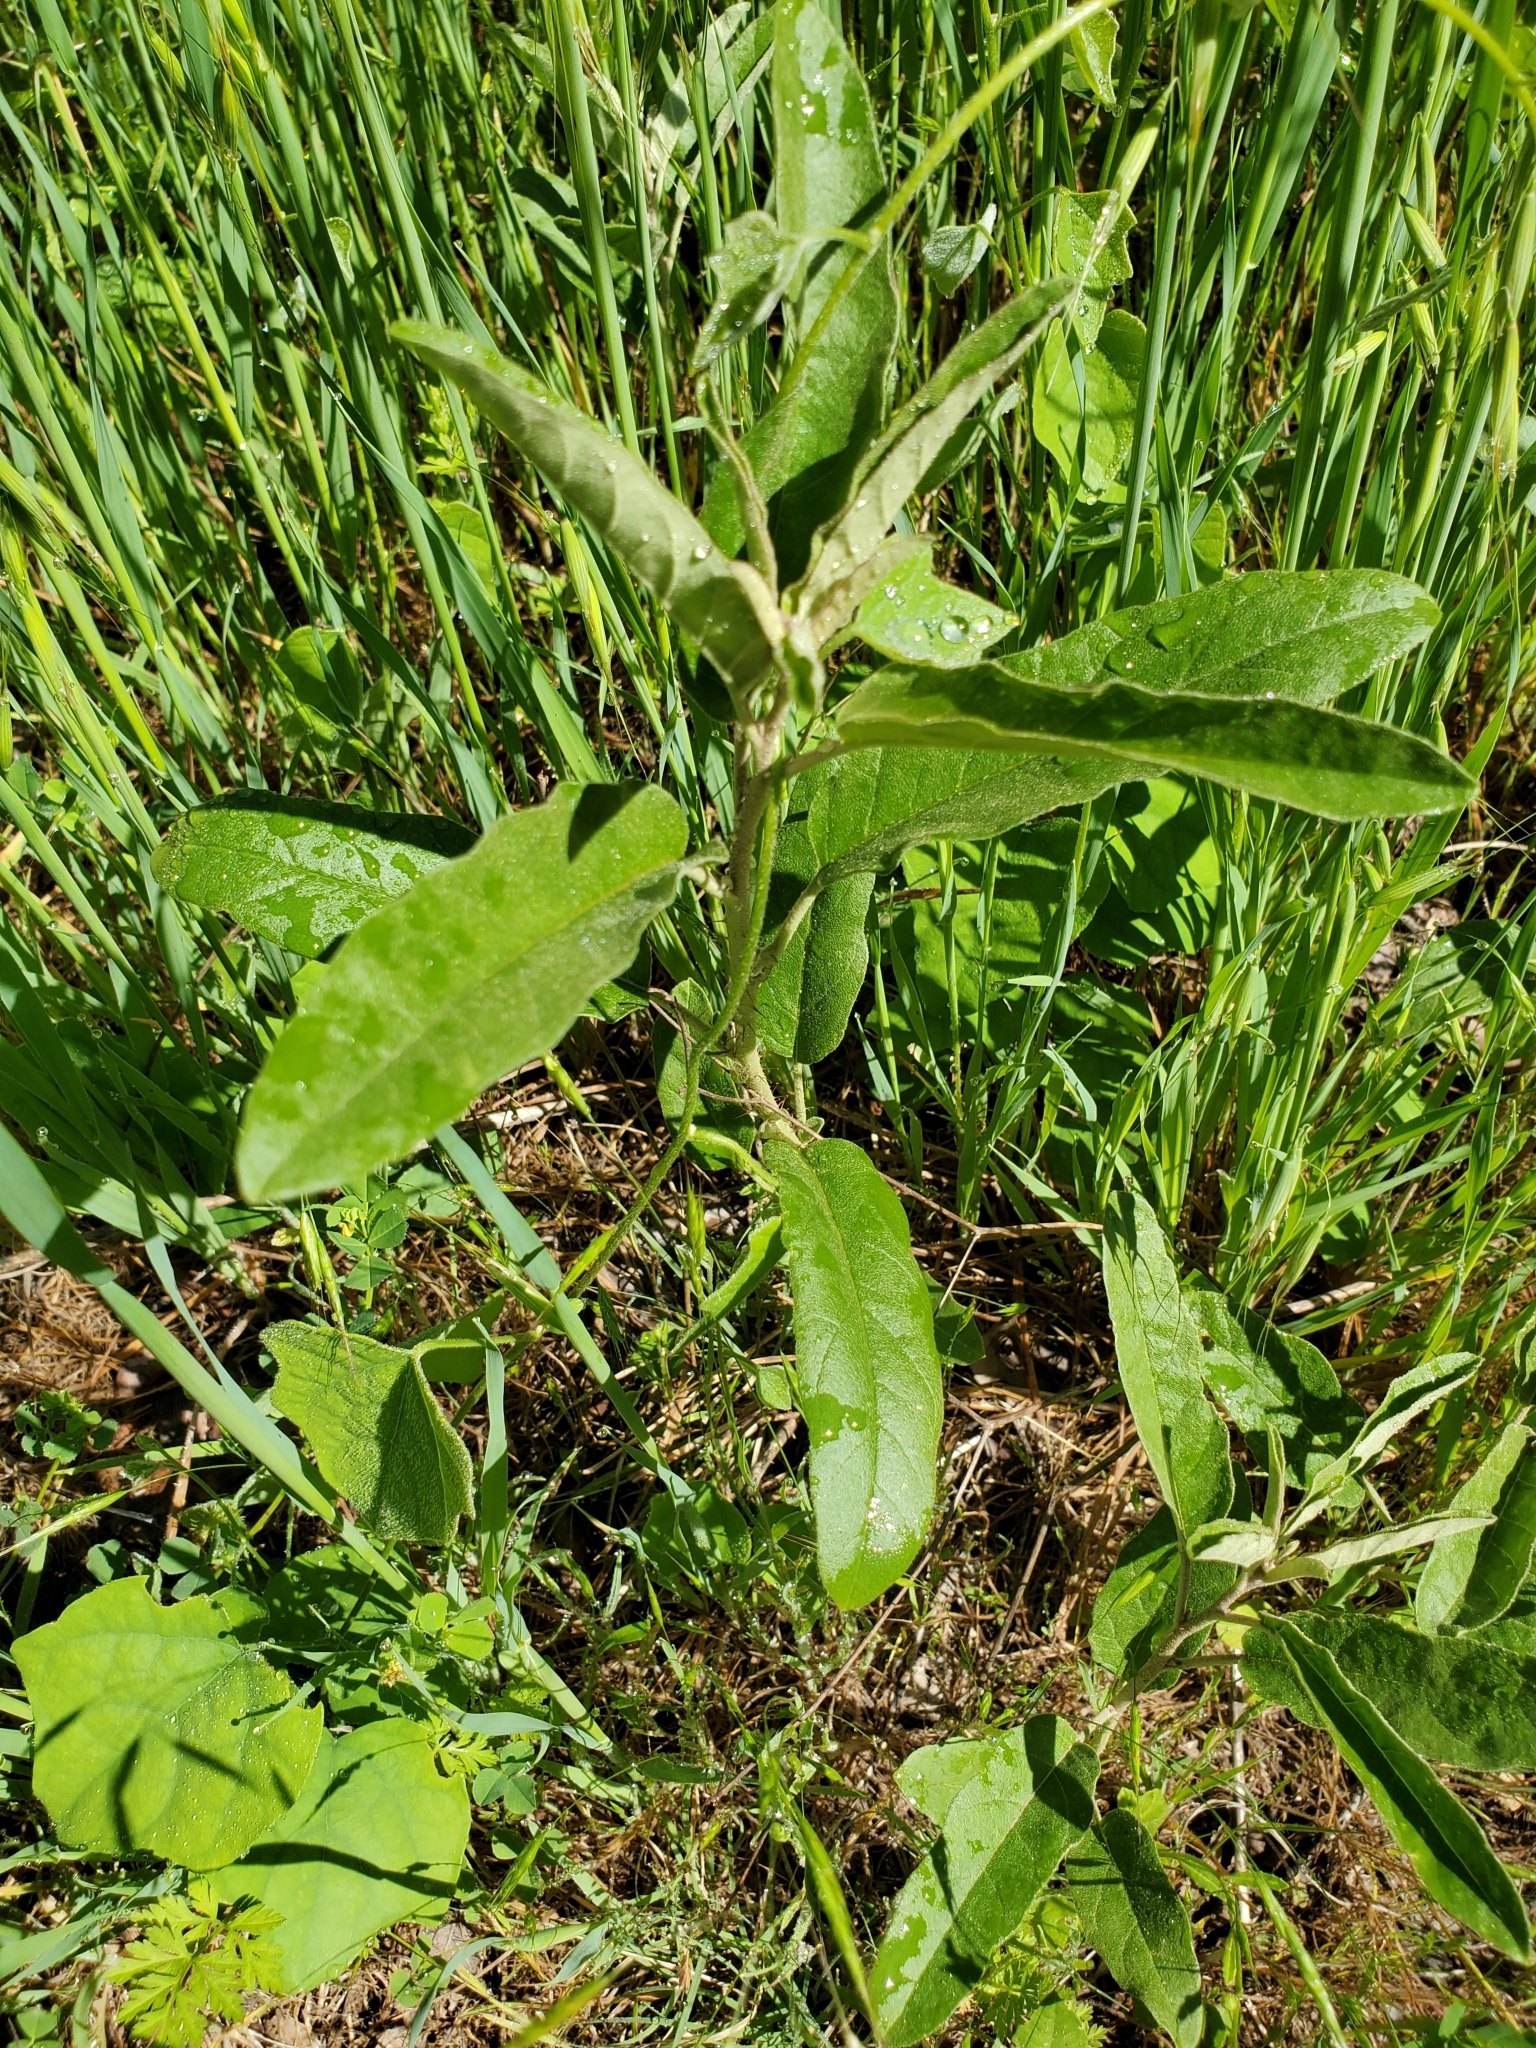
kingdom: Plantae
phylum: Tracheophyta
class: Magnoliopsida
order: Solanales
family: Solanaceae
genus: Solanum
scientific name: Solanum elaeagnifolium
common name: Silverleaf nightshade
